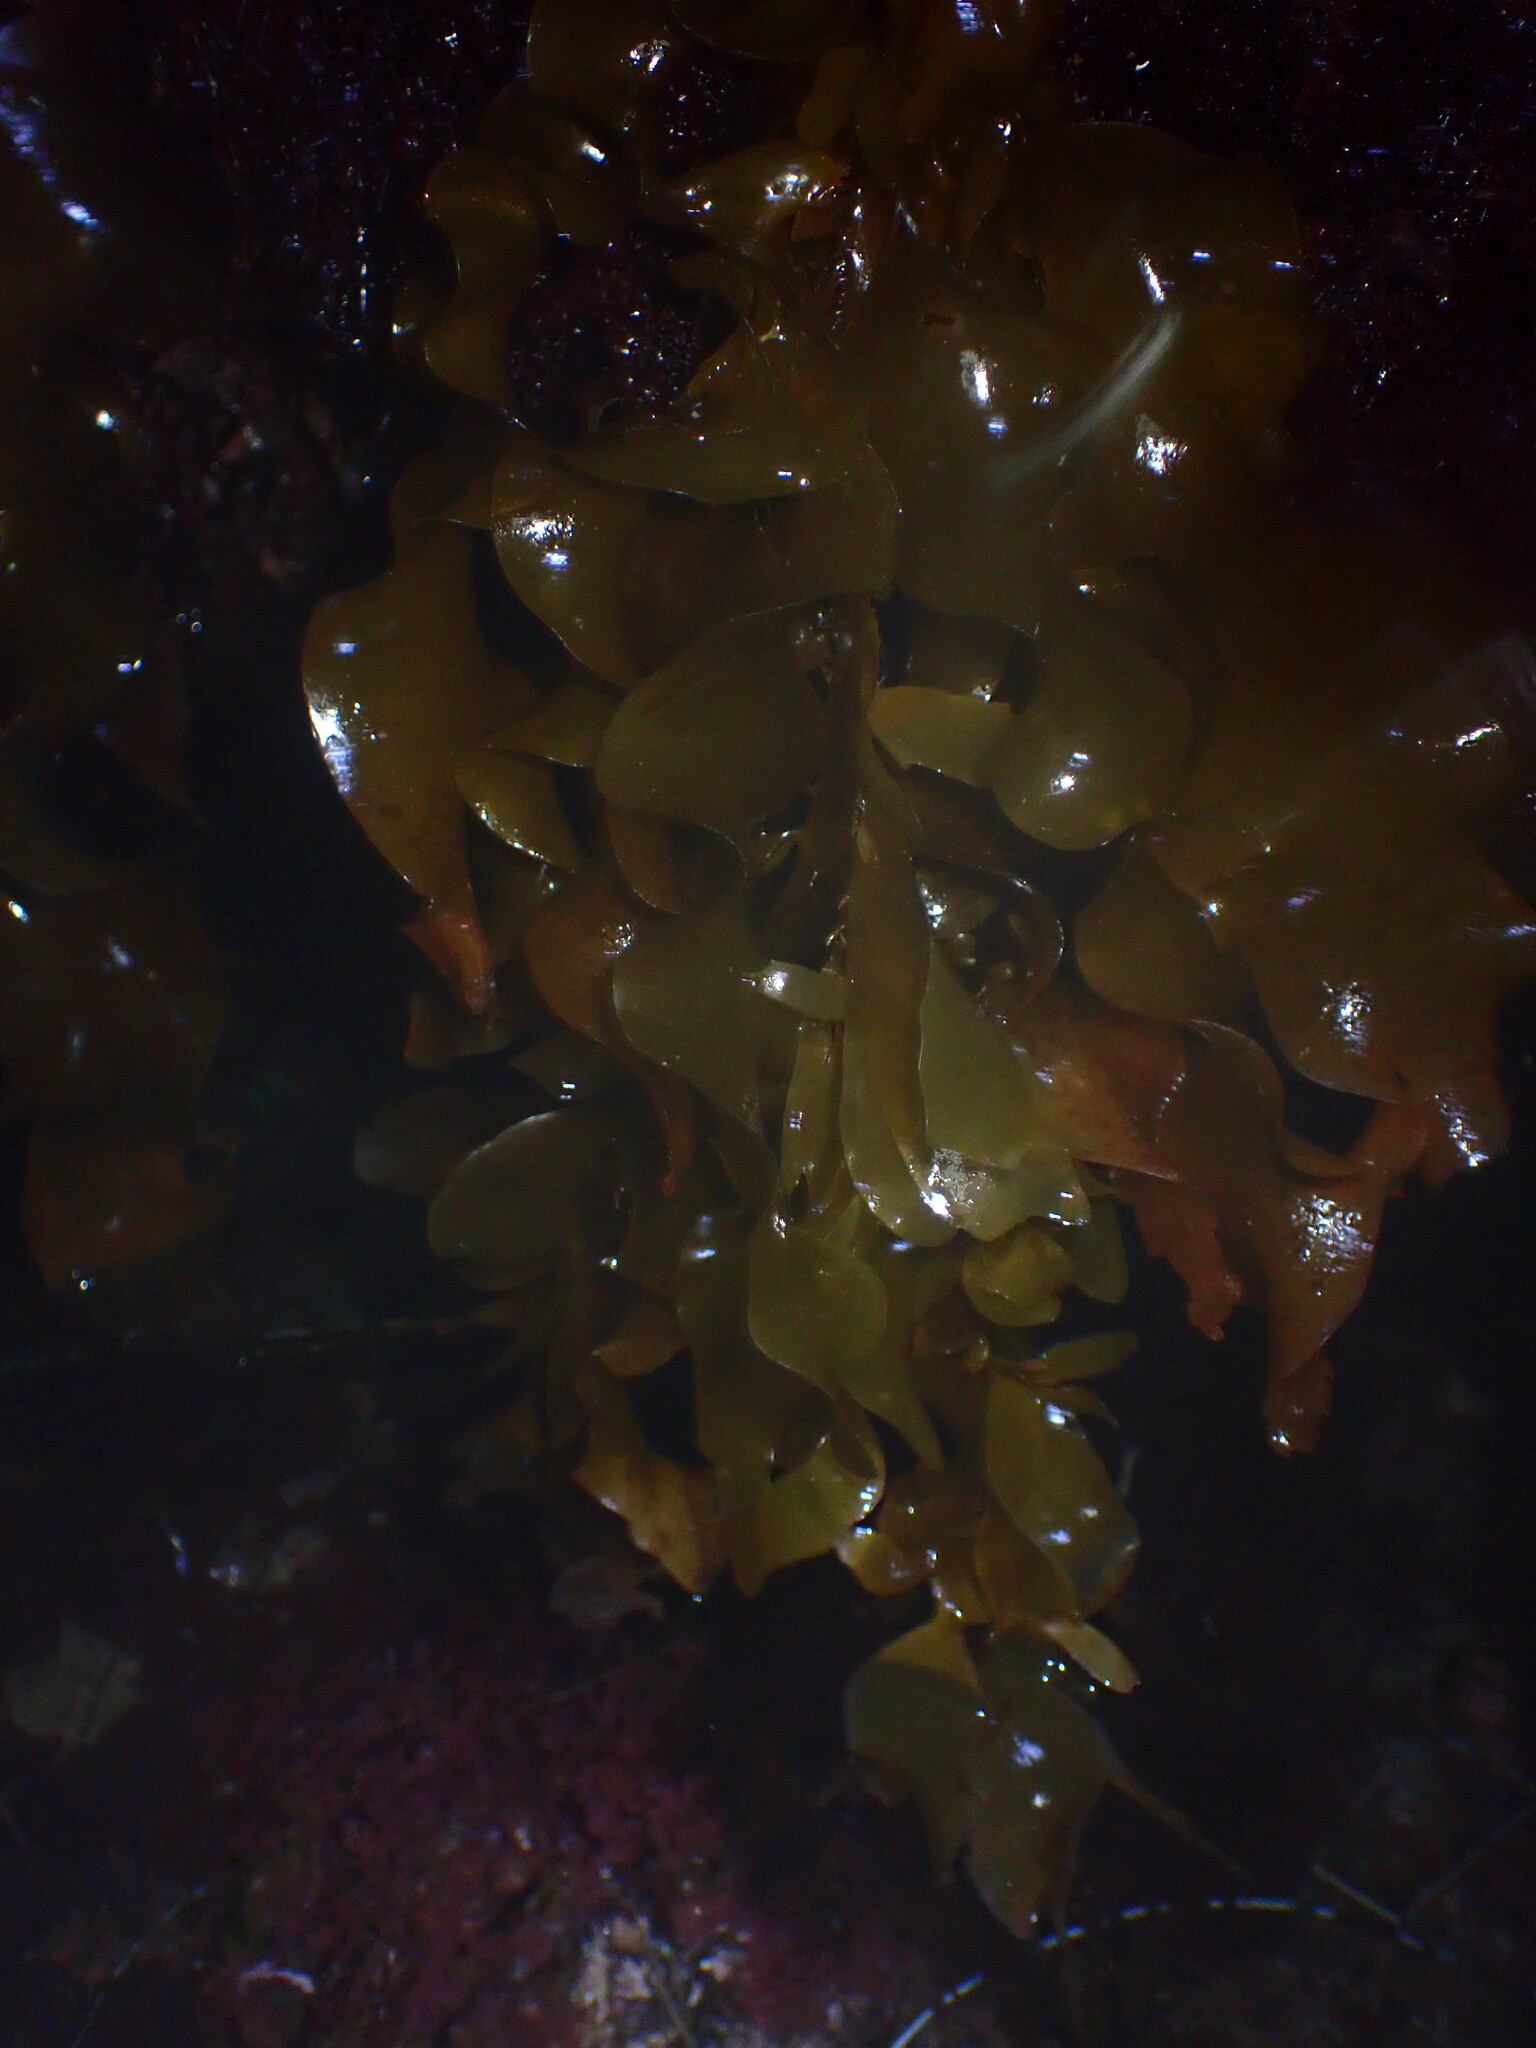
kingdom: Chromista
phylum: Ochrophyta
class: Phaeophyceae
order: Laminariales
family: Lessoniaceae
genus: Egregia
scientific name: Egregia menziesii
